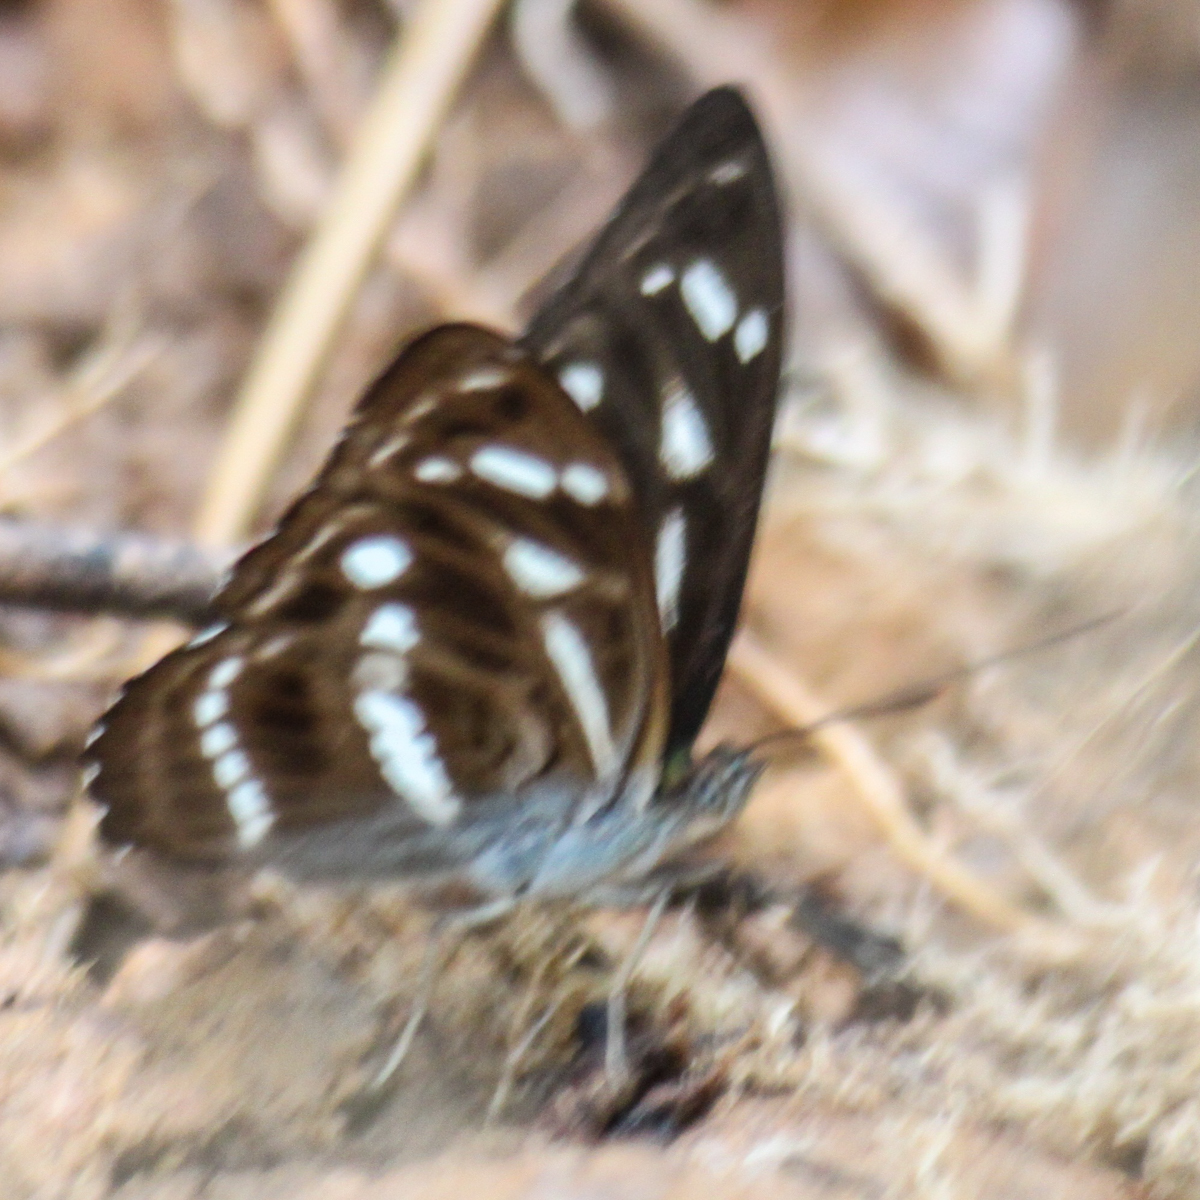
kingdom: Animalia
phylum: Arthropoda
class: Insecta
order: Lepidoptera
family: Nymphalidae
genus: Parathyma
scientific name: Parathyma kanwa
